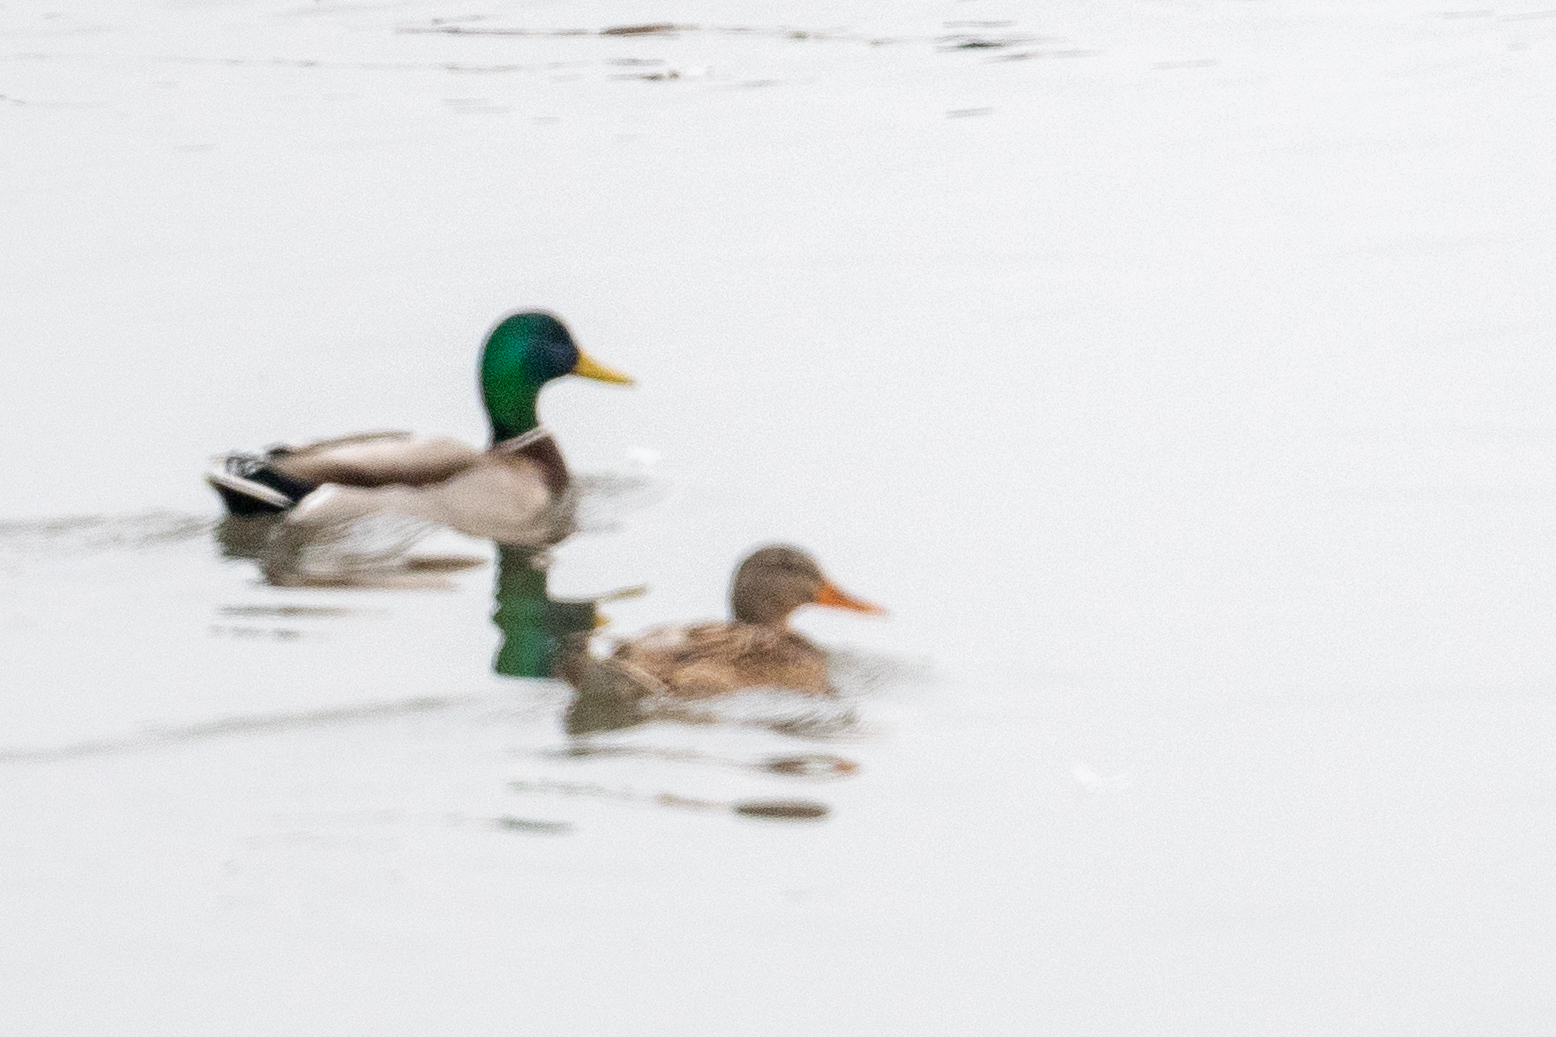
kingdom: Animalia
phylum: Chordata
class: Aves
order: Anseriformes
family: Anatidae
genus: Anas
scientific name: Anas platyrhynchos
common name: Mallard
